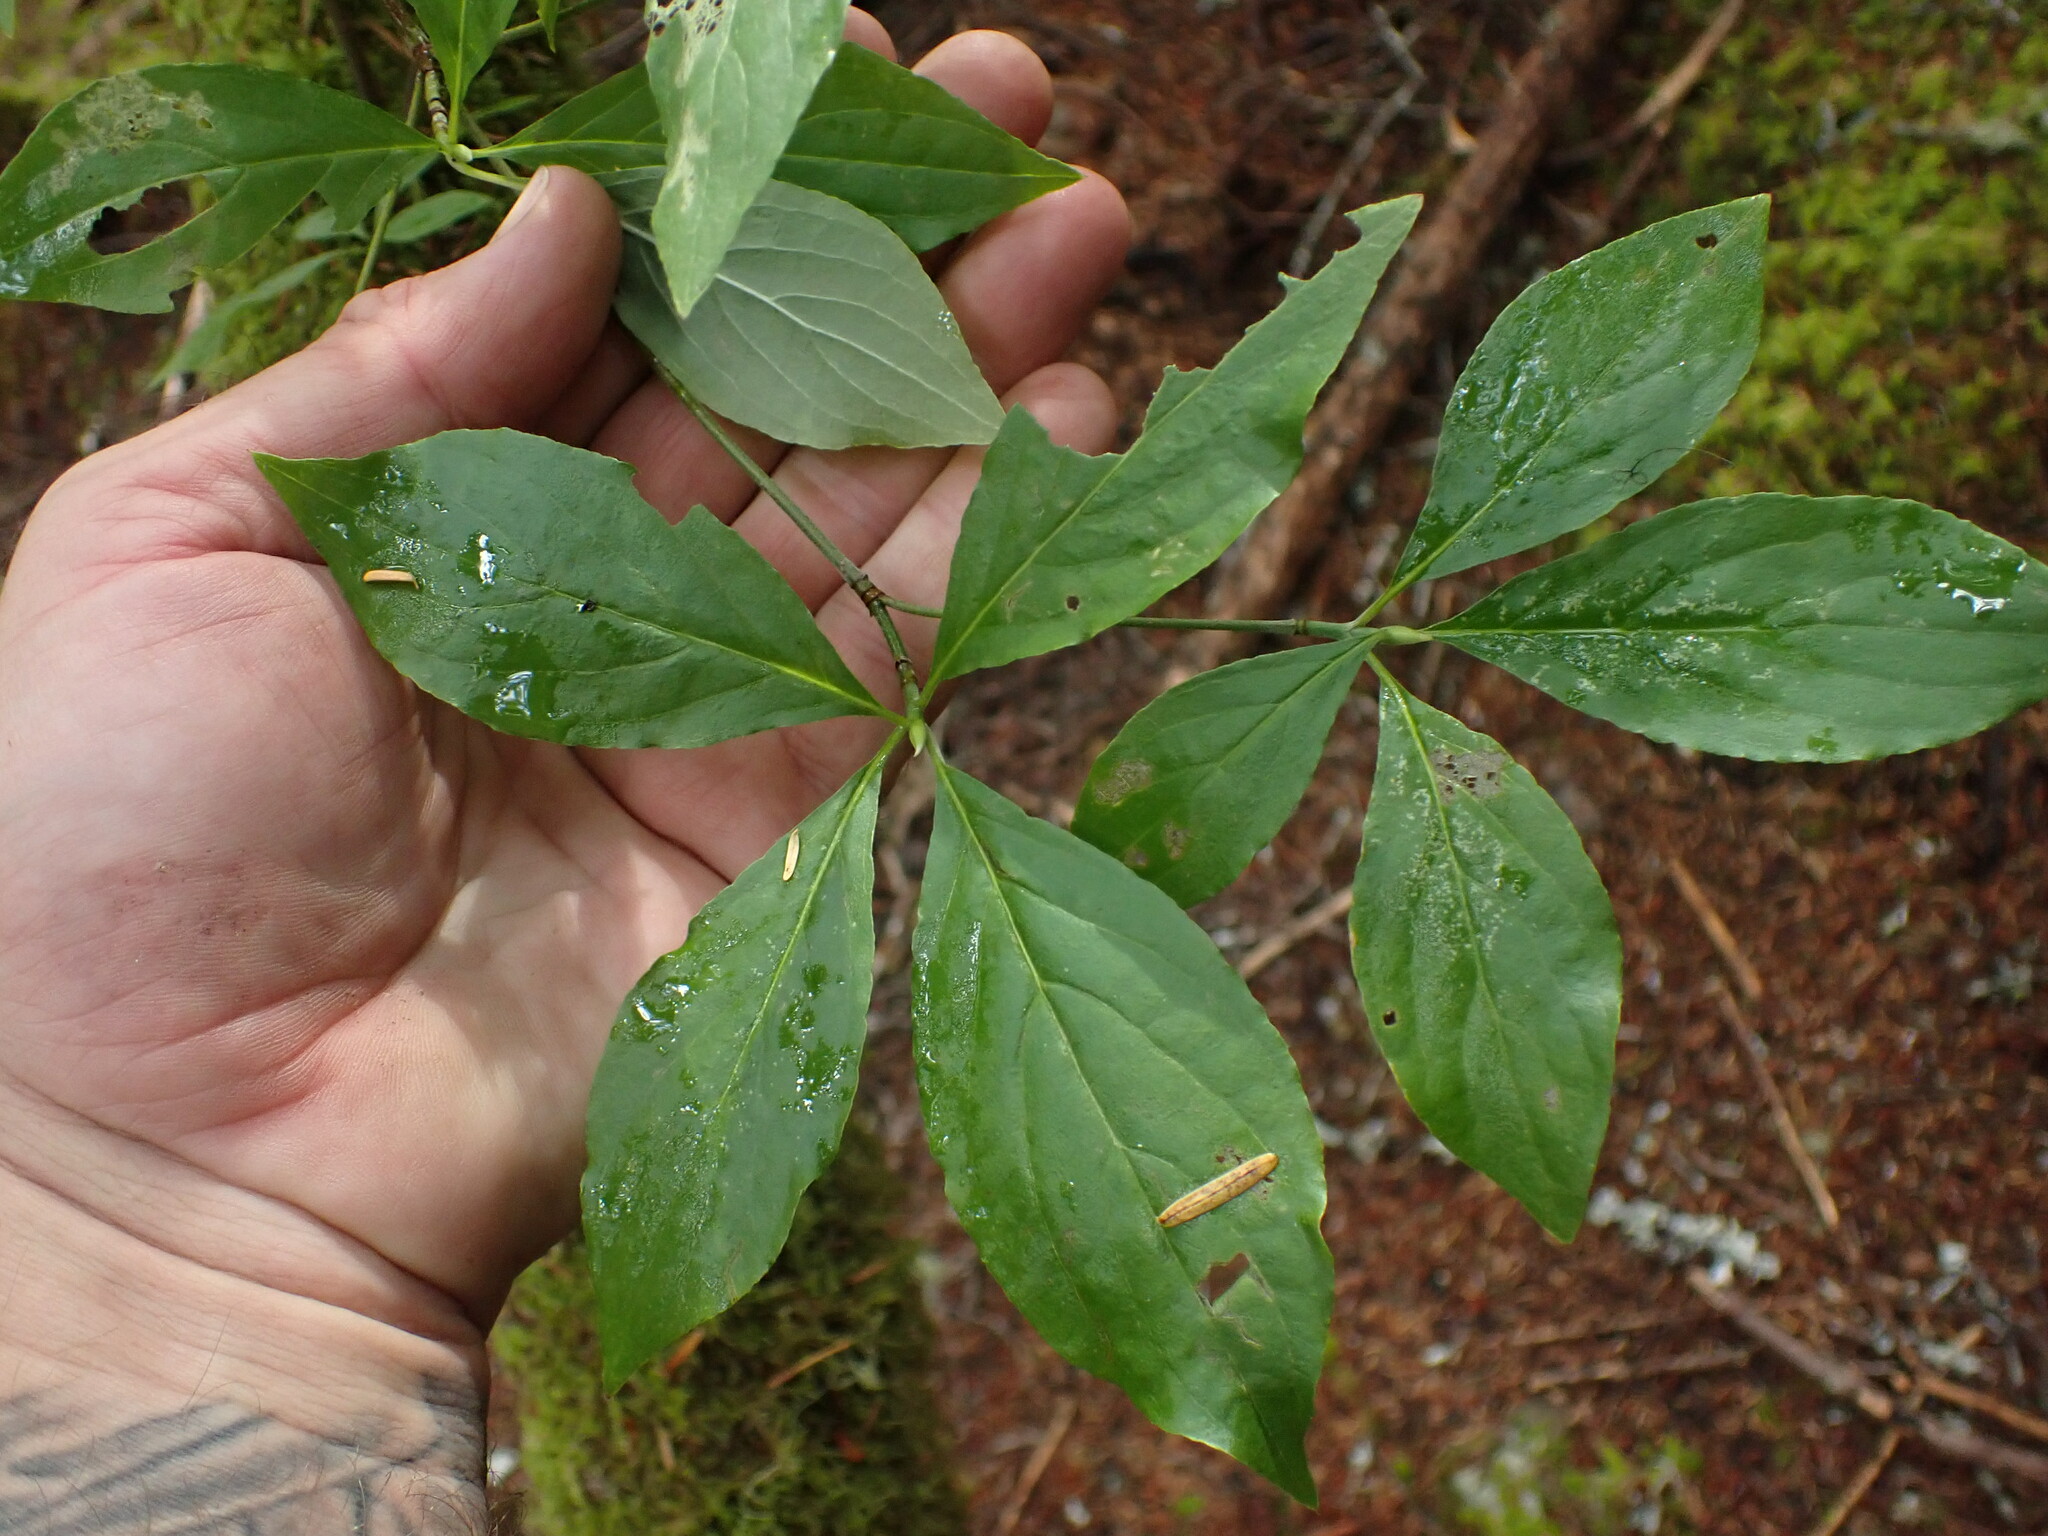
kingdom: Plantae
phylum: Tracheophyta
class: Magnoliopsida
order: Cornales
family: Cornaceae
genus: Cornus
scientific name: Cornus nuttallii
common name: Pacific dogwood
